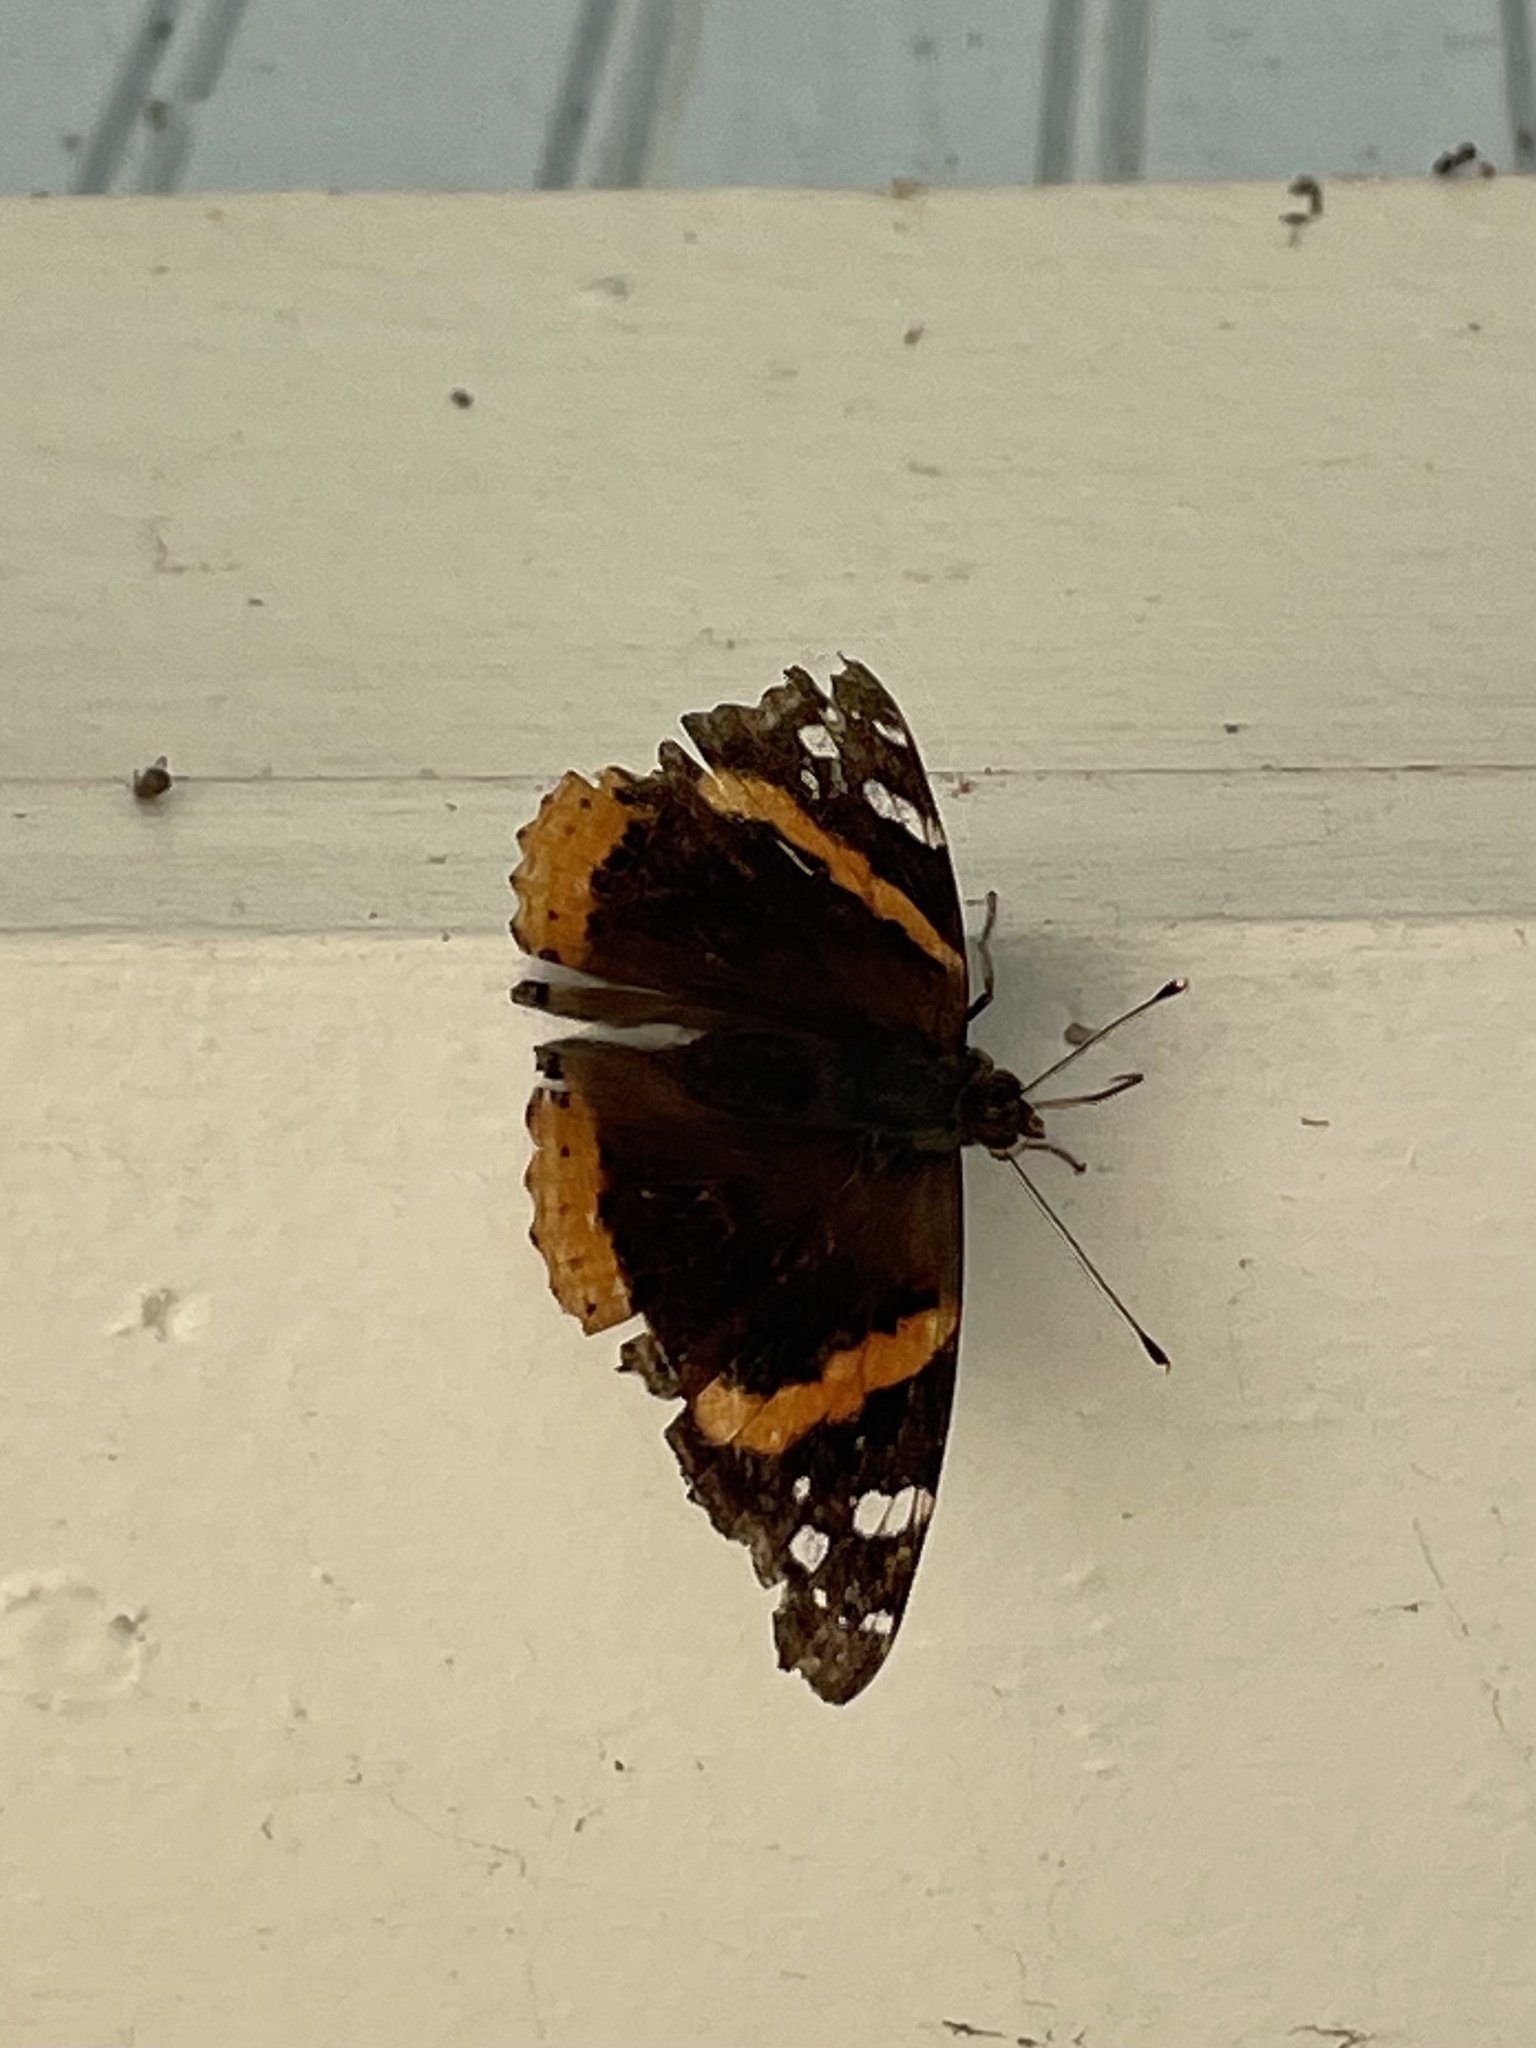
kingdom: Animalia
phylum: Arthropoda
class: Insecta
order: Lepidoptera
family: Nymphalidae
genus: Vanessa
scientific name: Vanessa atalanta
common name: Red admiral
